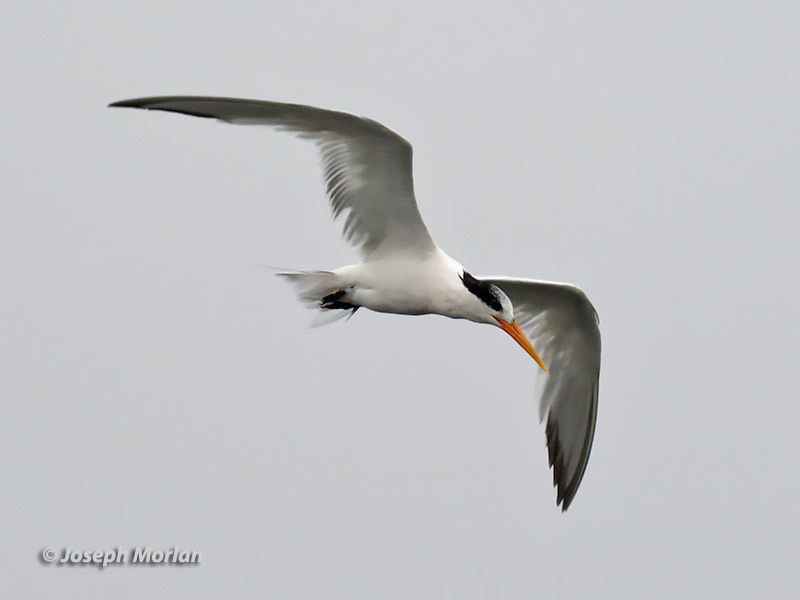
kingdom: Animalia
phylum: Chordata
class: Aves
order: Charadriiformes
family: Laridae
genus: Thalasseus
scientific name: Thalasseus elegans
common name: Elegant tern
